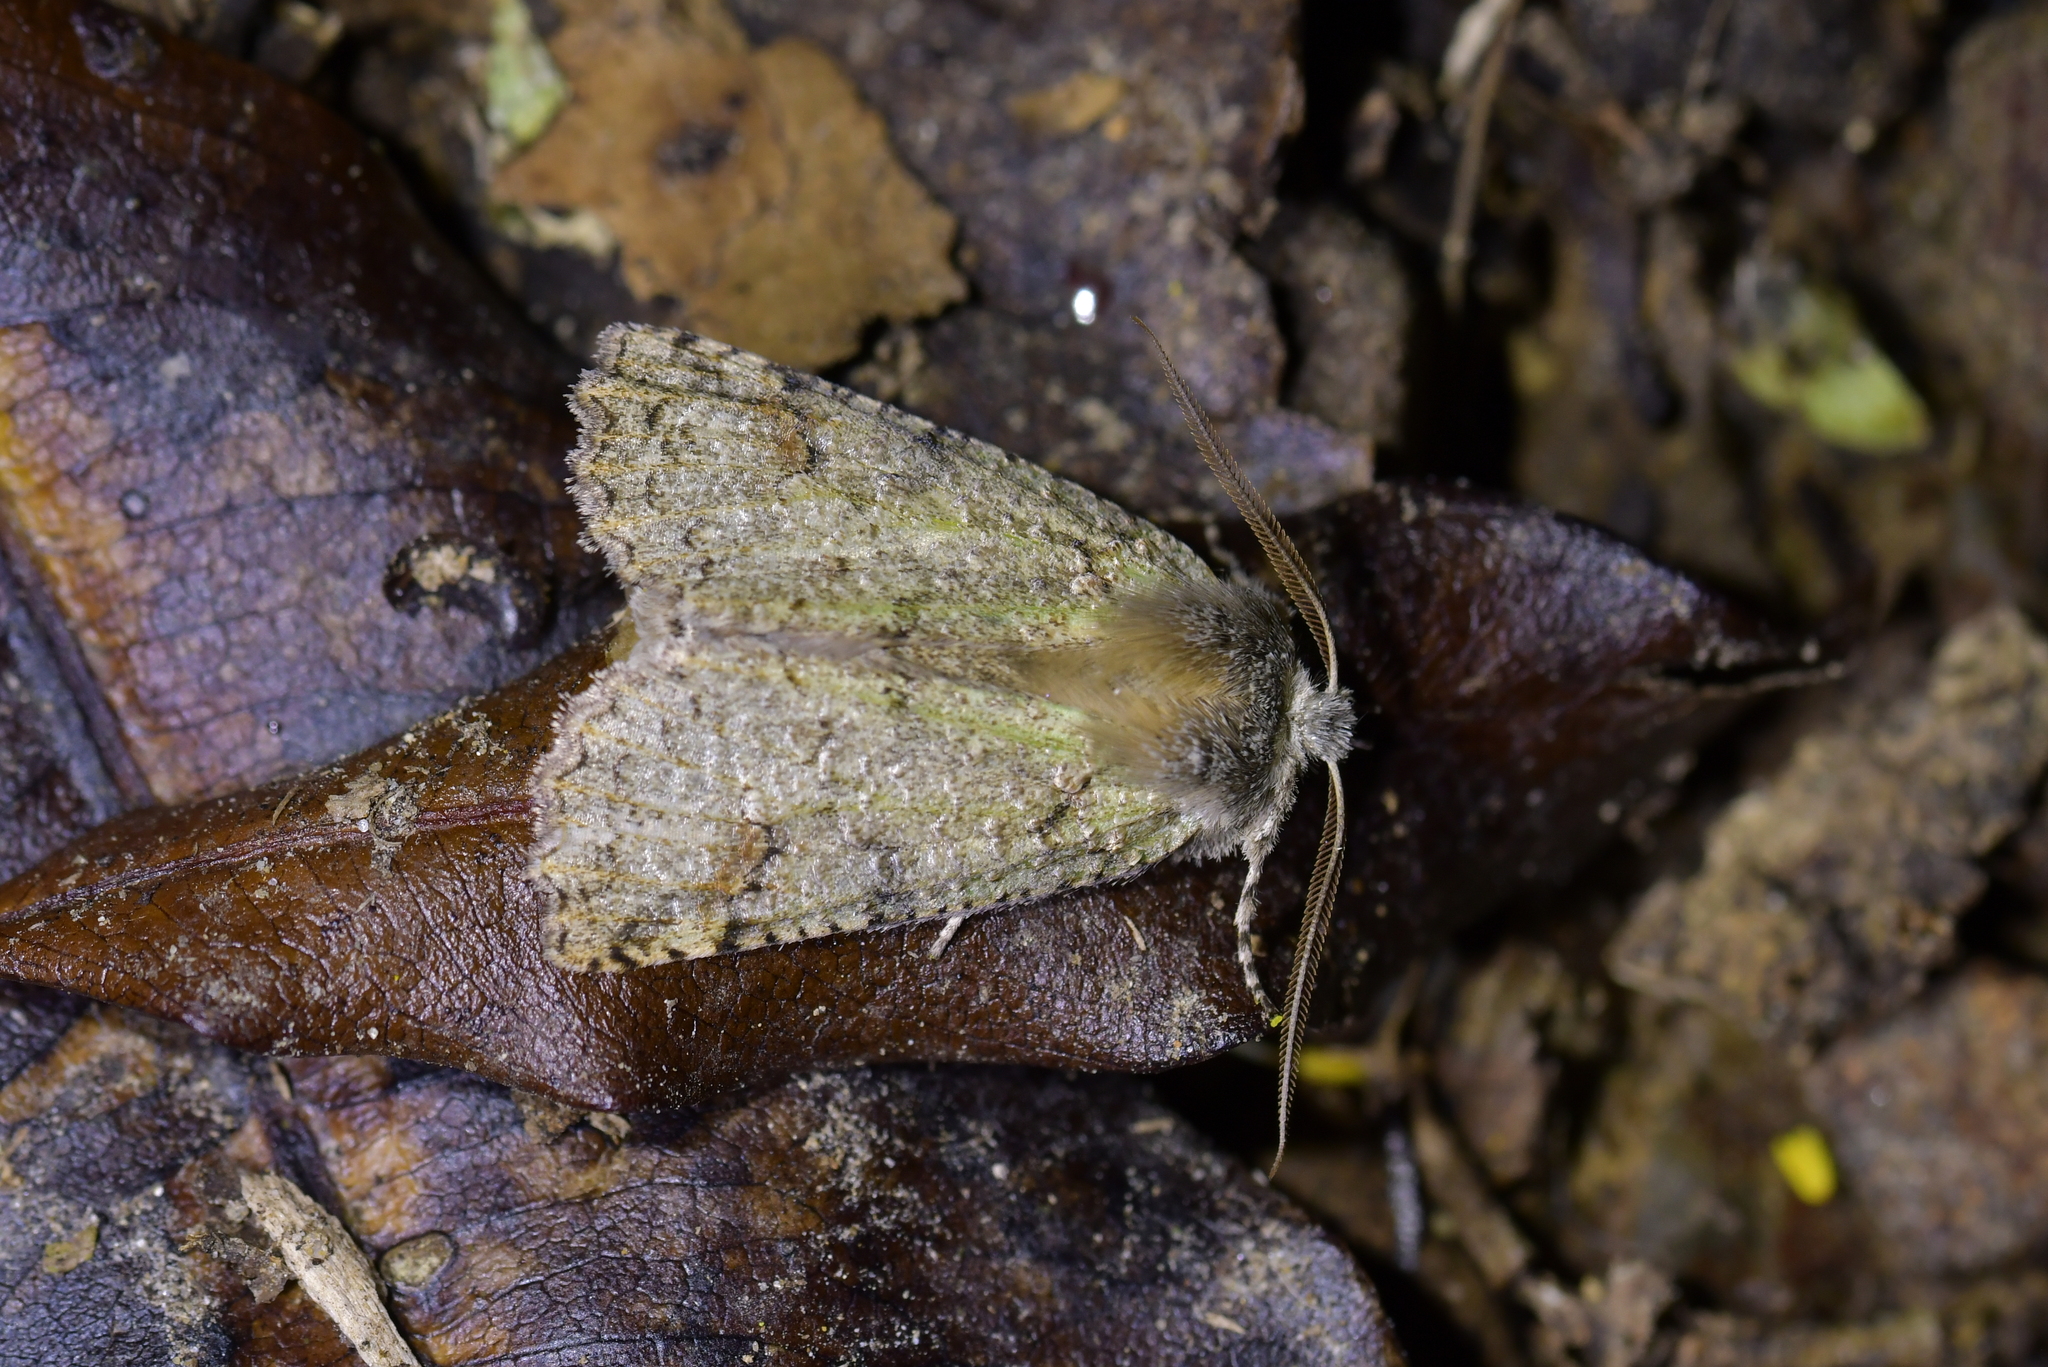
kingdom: Animalia
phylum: Arthropoda
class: Insecta
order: Lepidoptera
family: Geometridae
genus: Declana
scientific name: Declana floccosa
